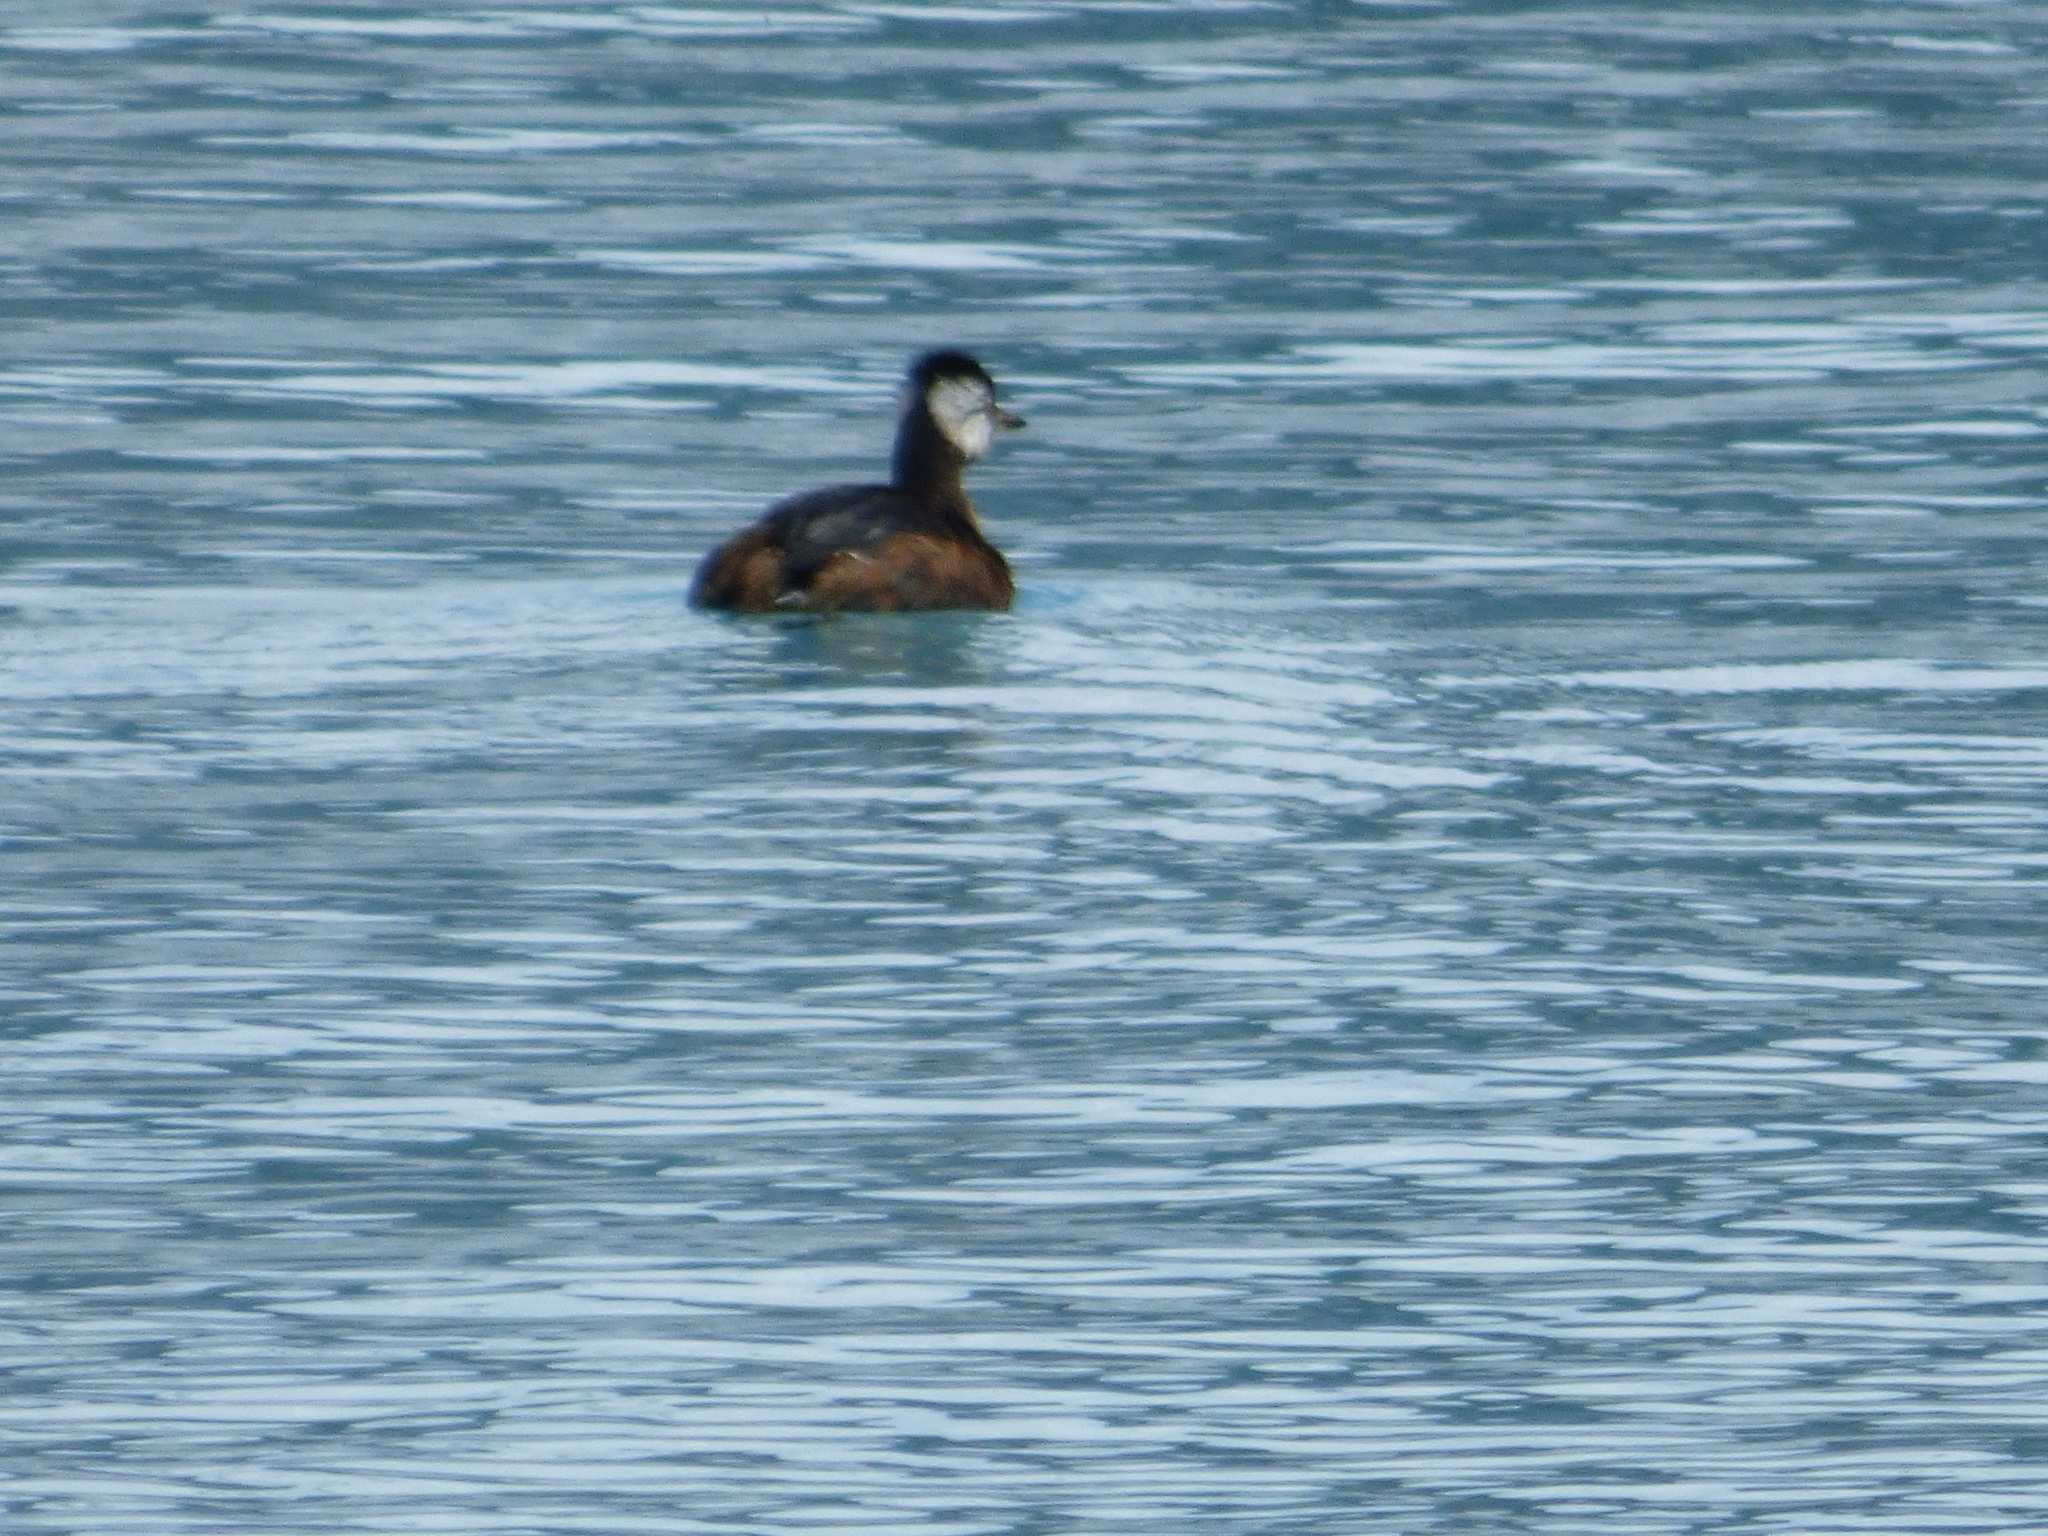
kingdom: Animalia
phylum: Chordata
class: Aves
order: Podicipediformes
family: Podicipedidae
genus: Rollandia
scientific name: Rollandia rolland
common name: White-tufted grebe
